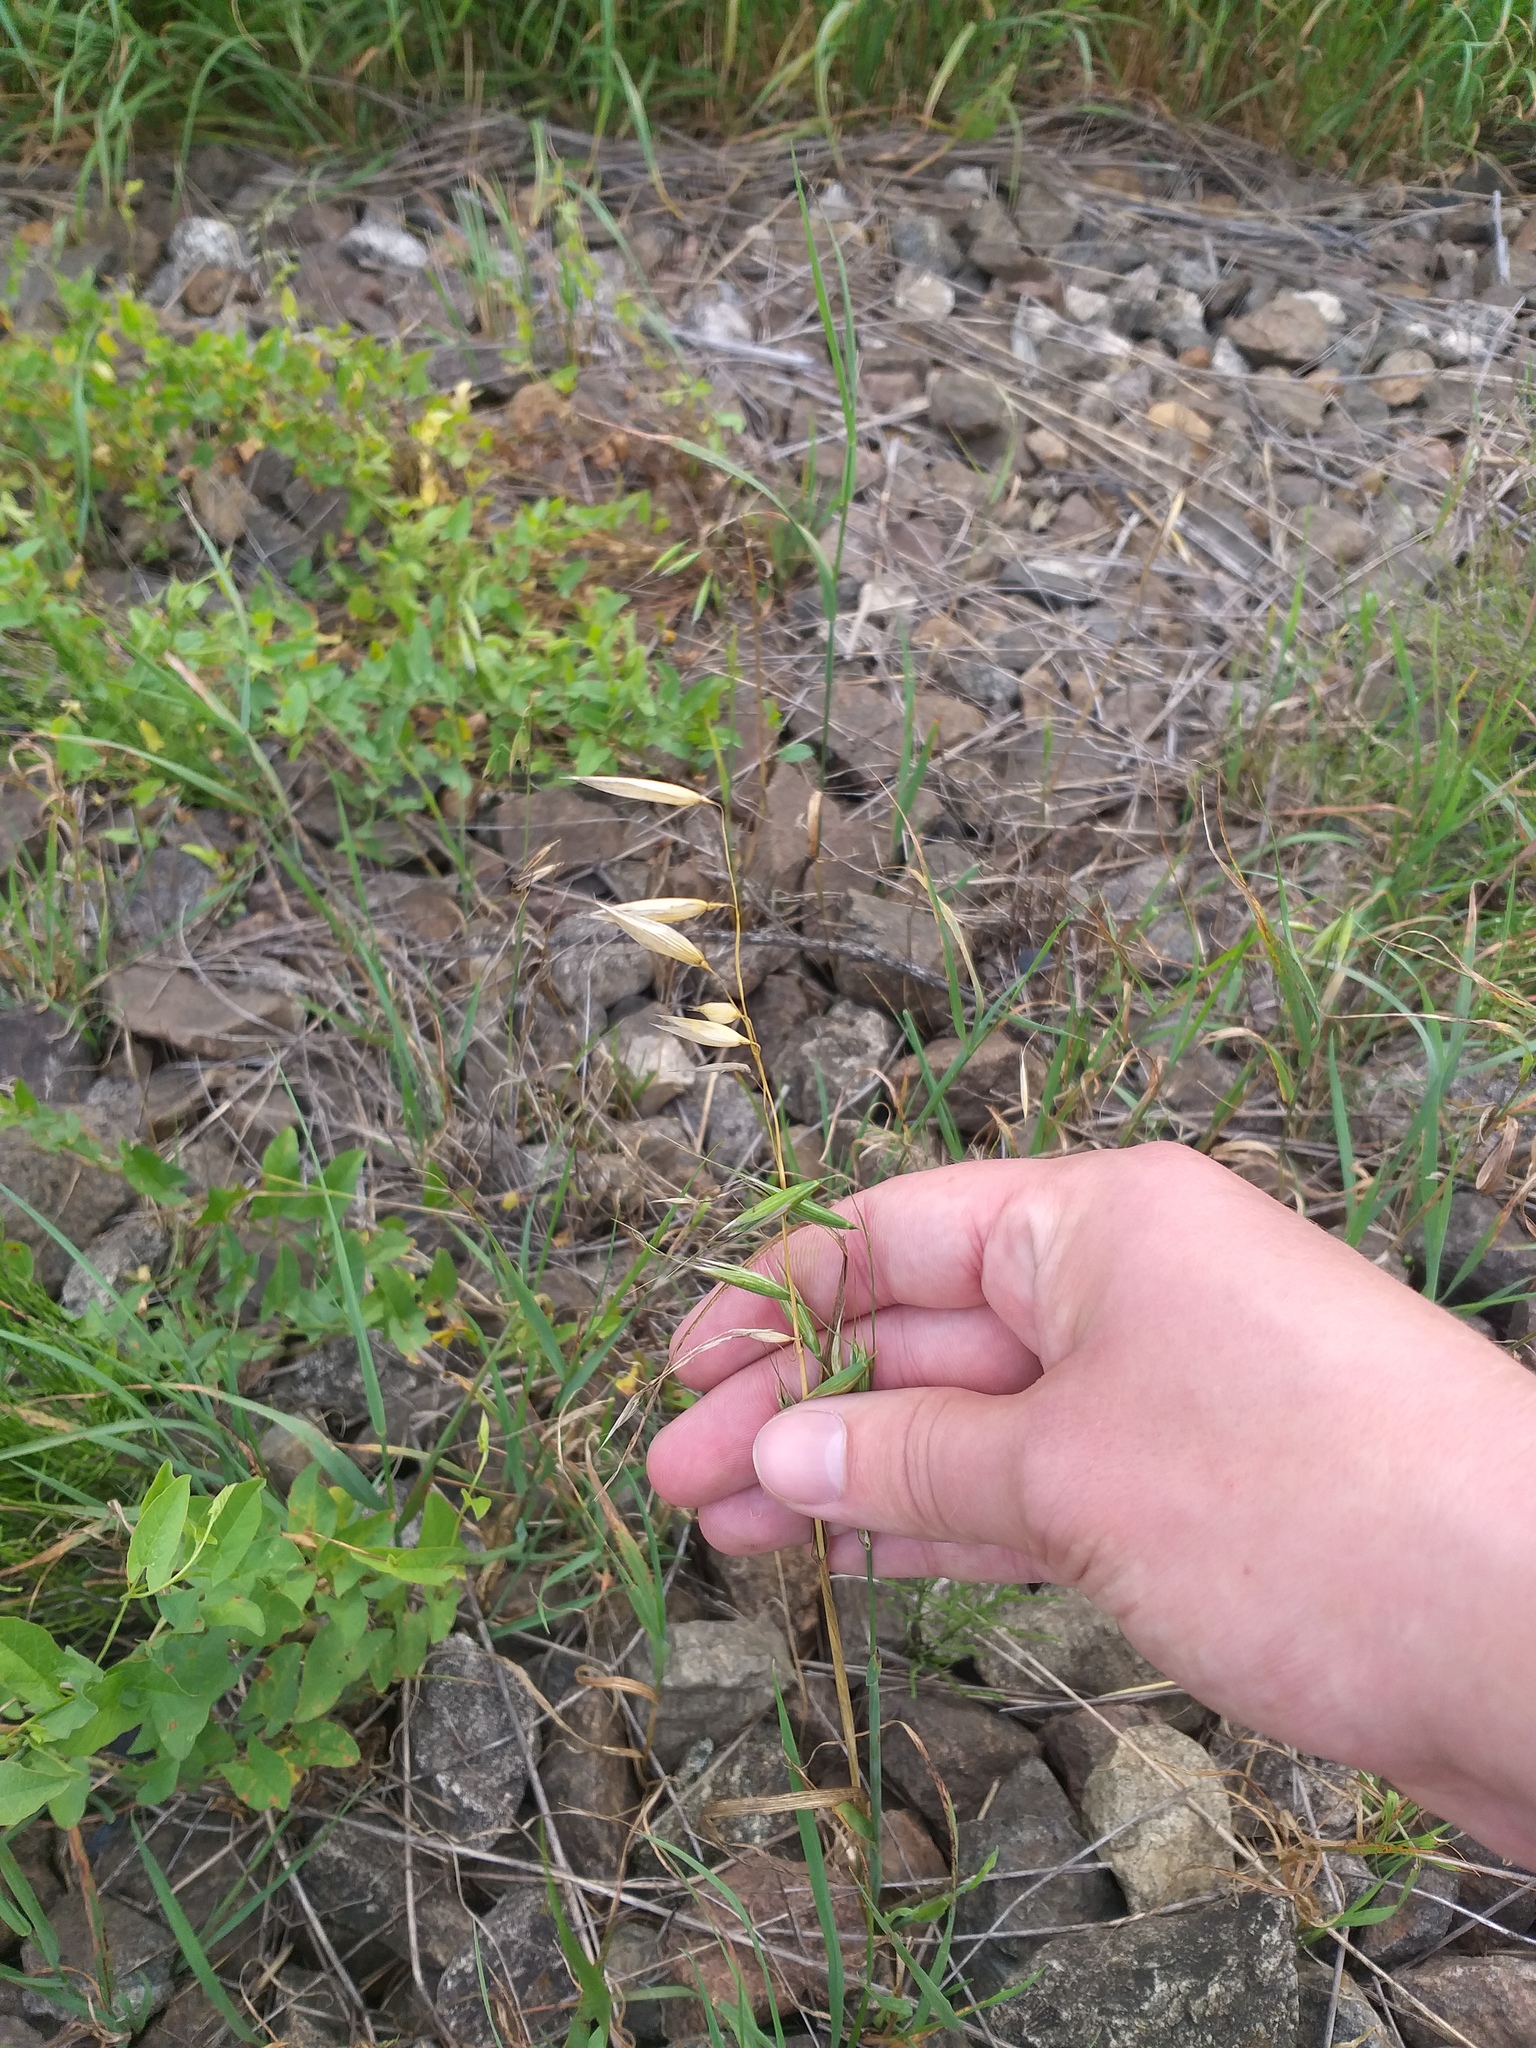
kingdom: Plantae
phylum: Tracheophyta
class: Liliopsida
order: Poales
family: Poaceae
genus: Avena
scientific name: Avena fatua
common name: Wild oat
